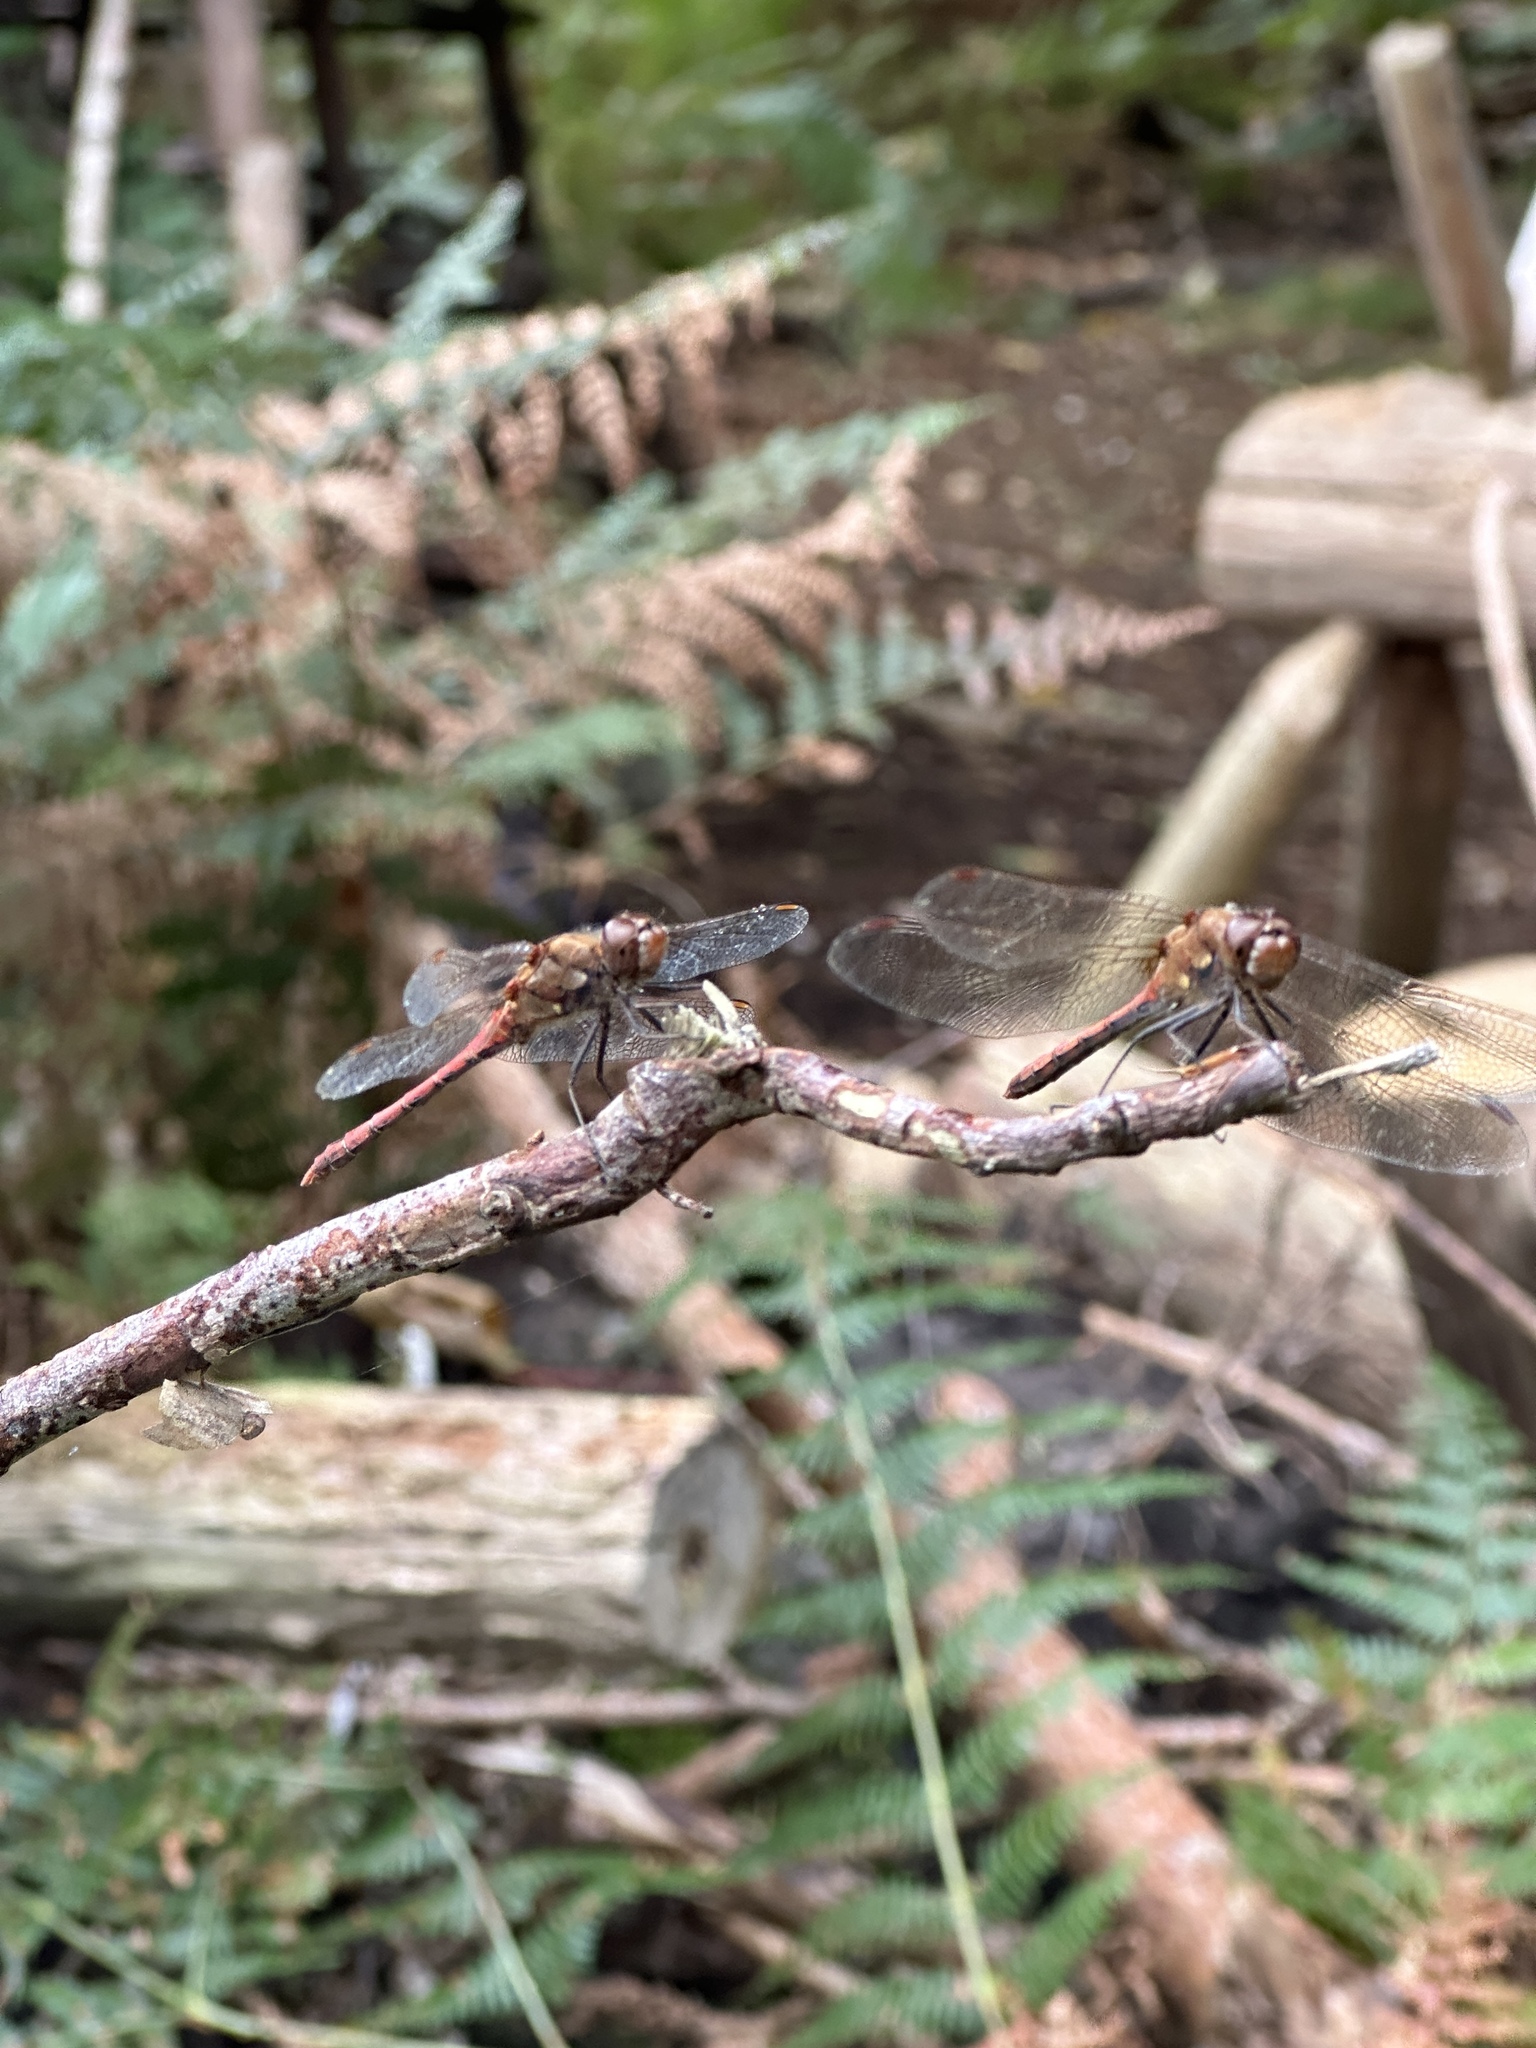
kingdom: Animalia
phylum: Arthropoda
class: Insecta
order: Odonata
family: Libellulidae
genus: Sympetrum
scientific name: Sympetrum striolatum
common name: Common darter
